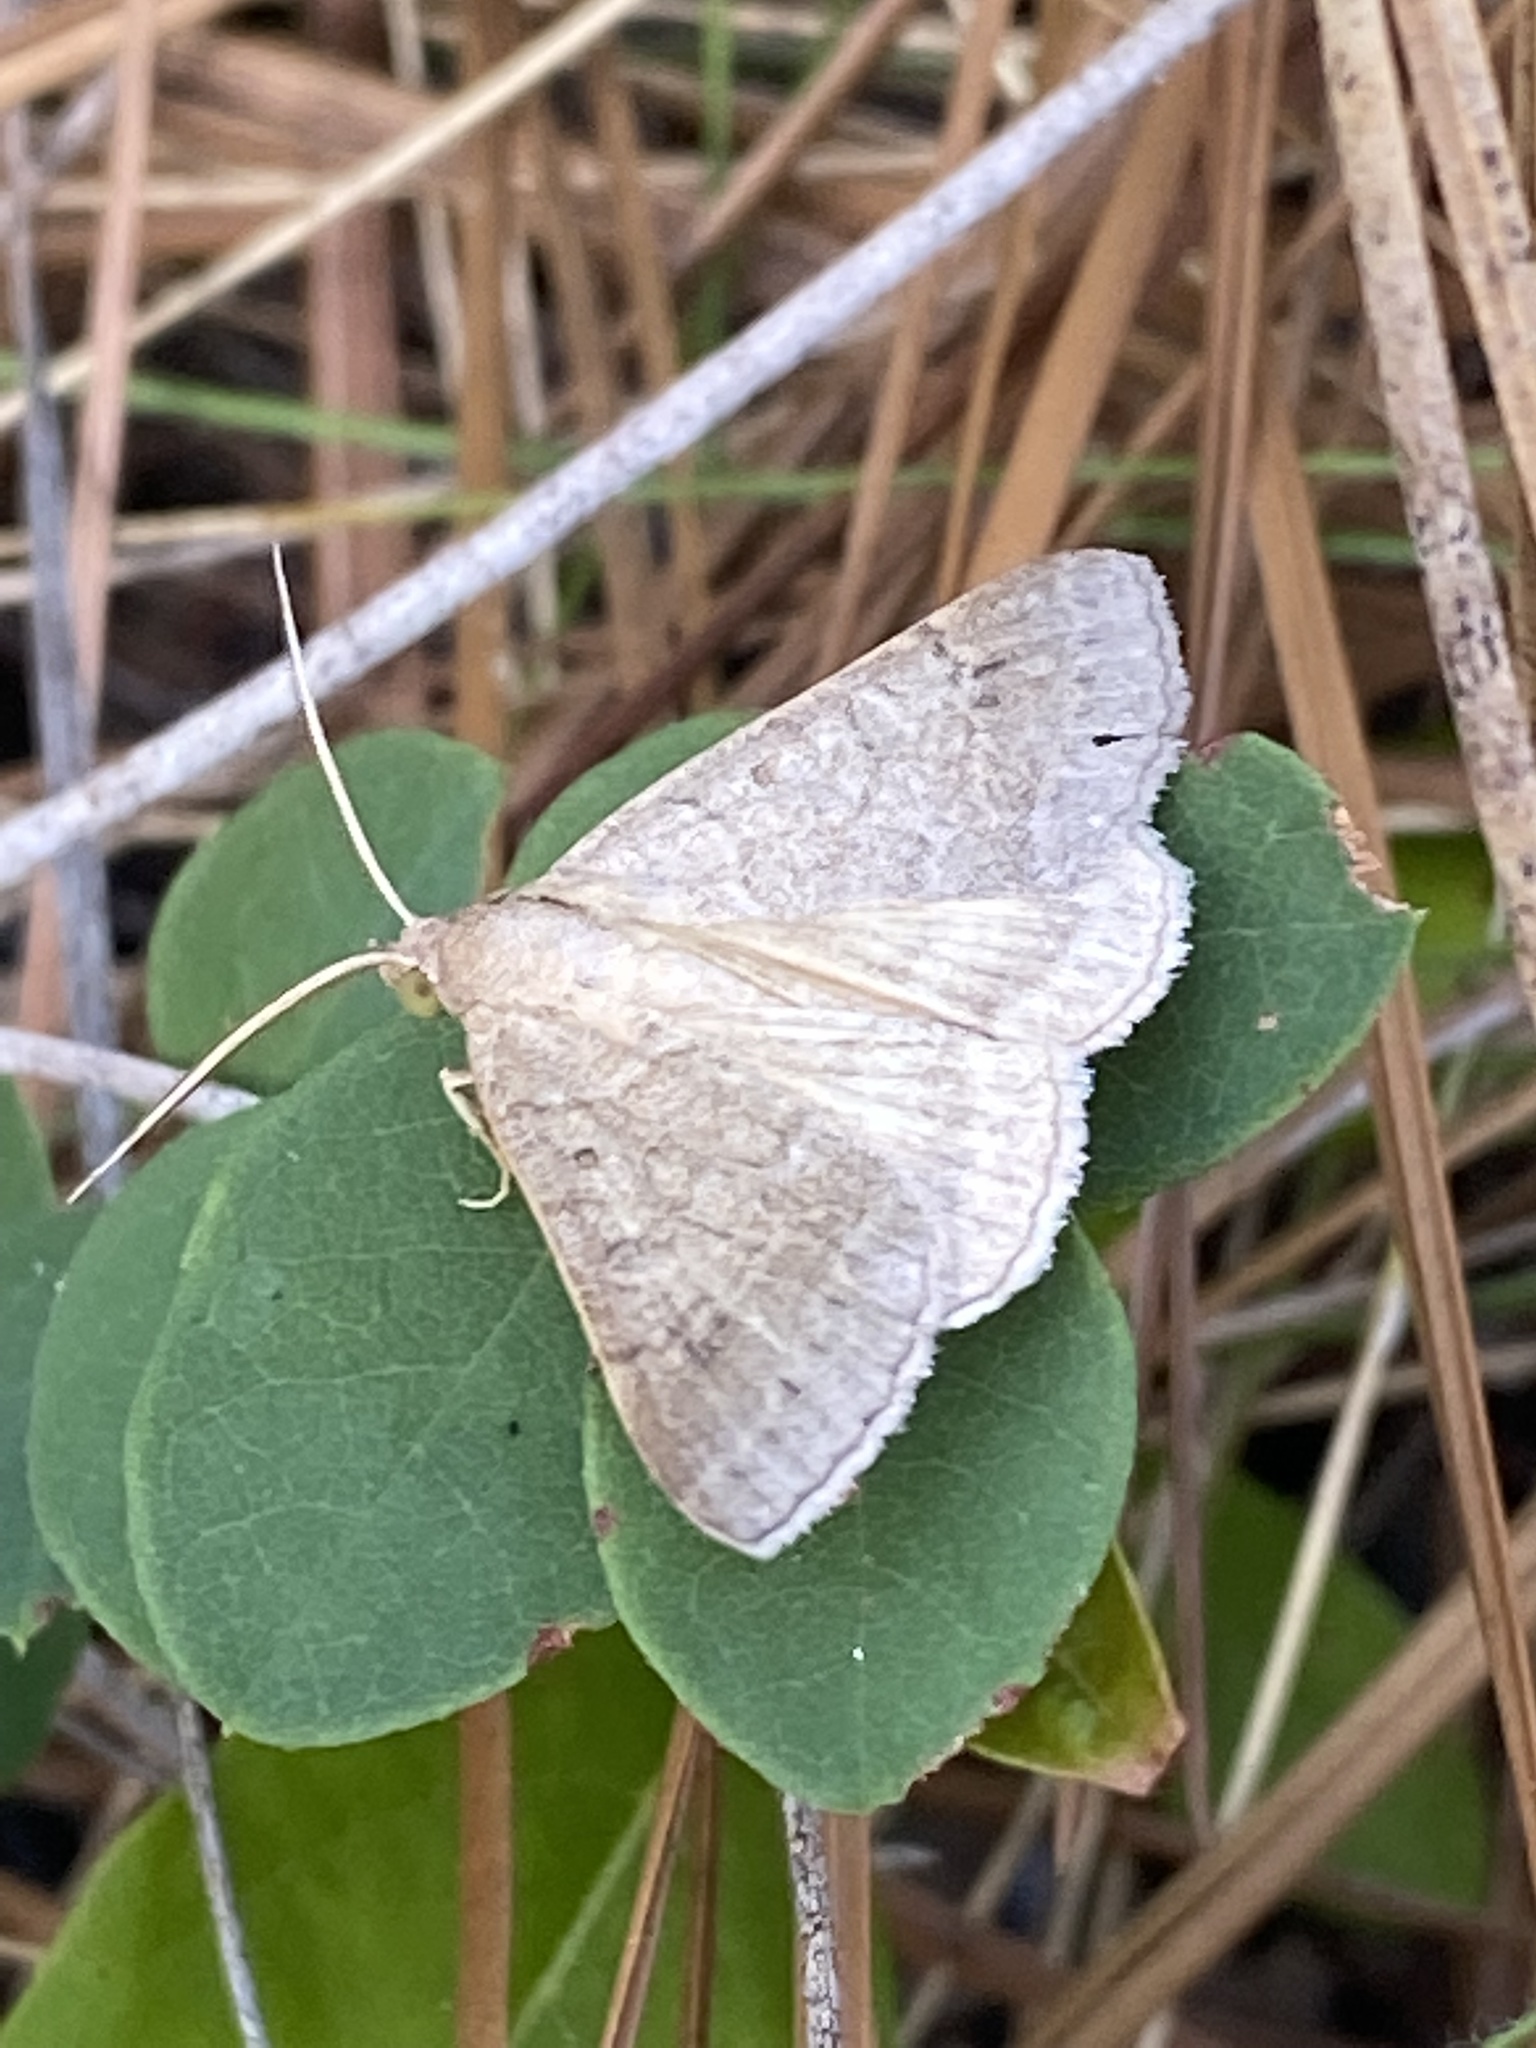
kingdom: Animalia
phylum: Arthropoda
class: Insecta
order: Lepidoptera
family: Erebidae
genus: Caenurgia
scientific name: Caenurgia chloropha
